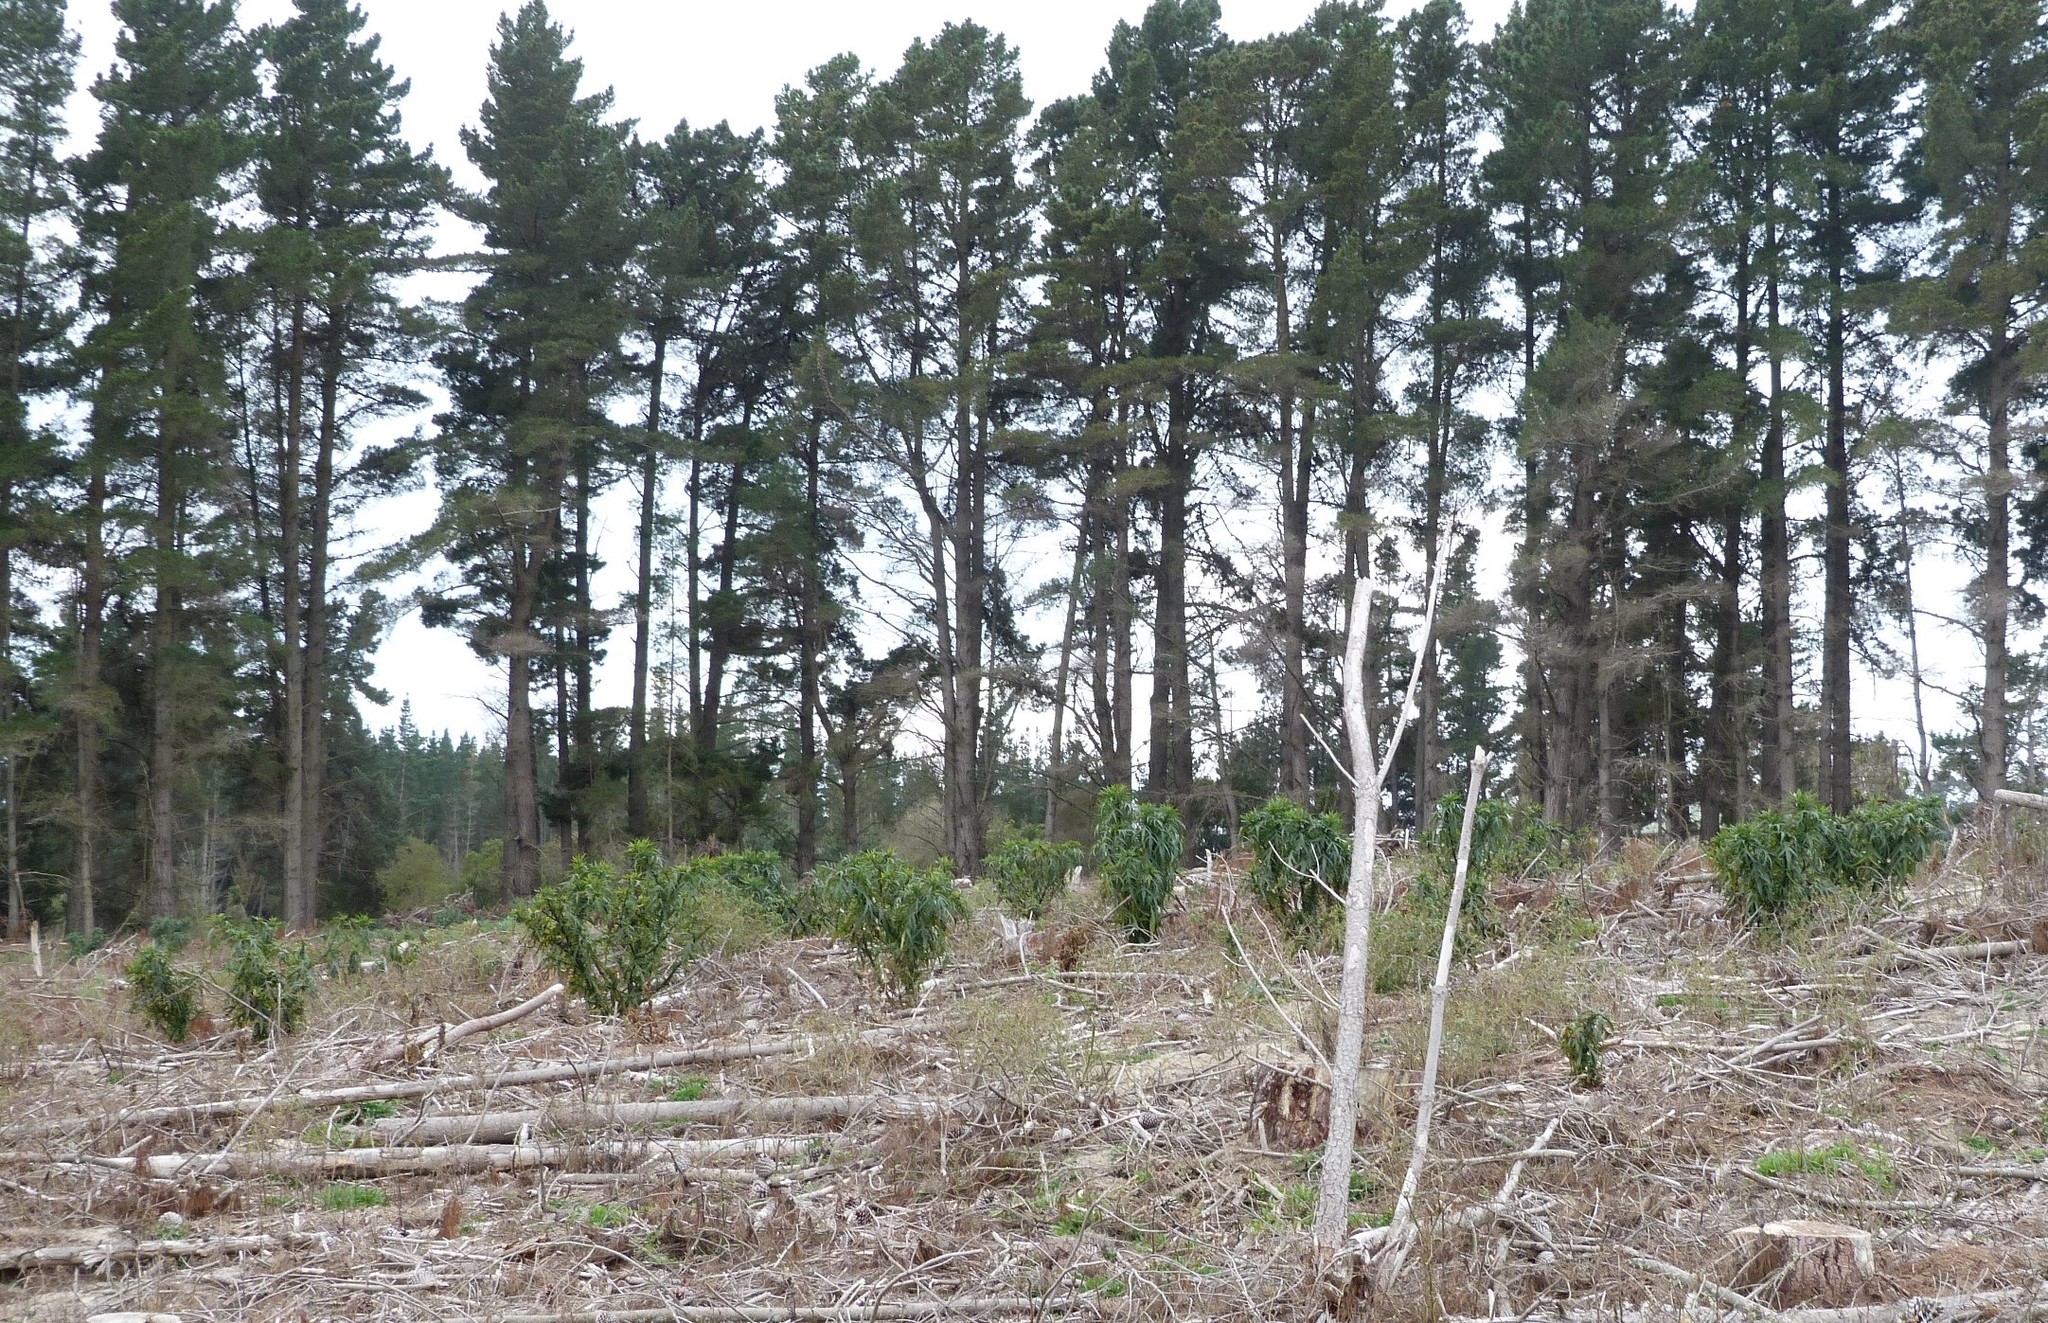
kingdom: Plantae
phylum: Tracheophyta
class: Magnoliopsida
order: Solanales
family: Solanaceae
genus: Solanum
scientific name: Solanum laciniatum
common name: Kangaroo-apple
